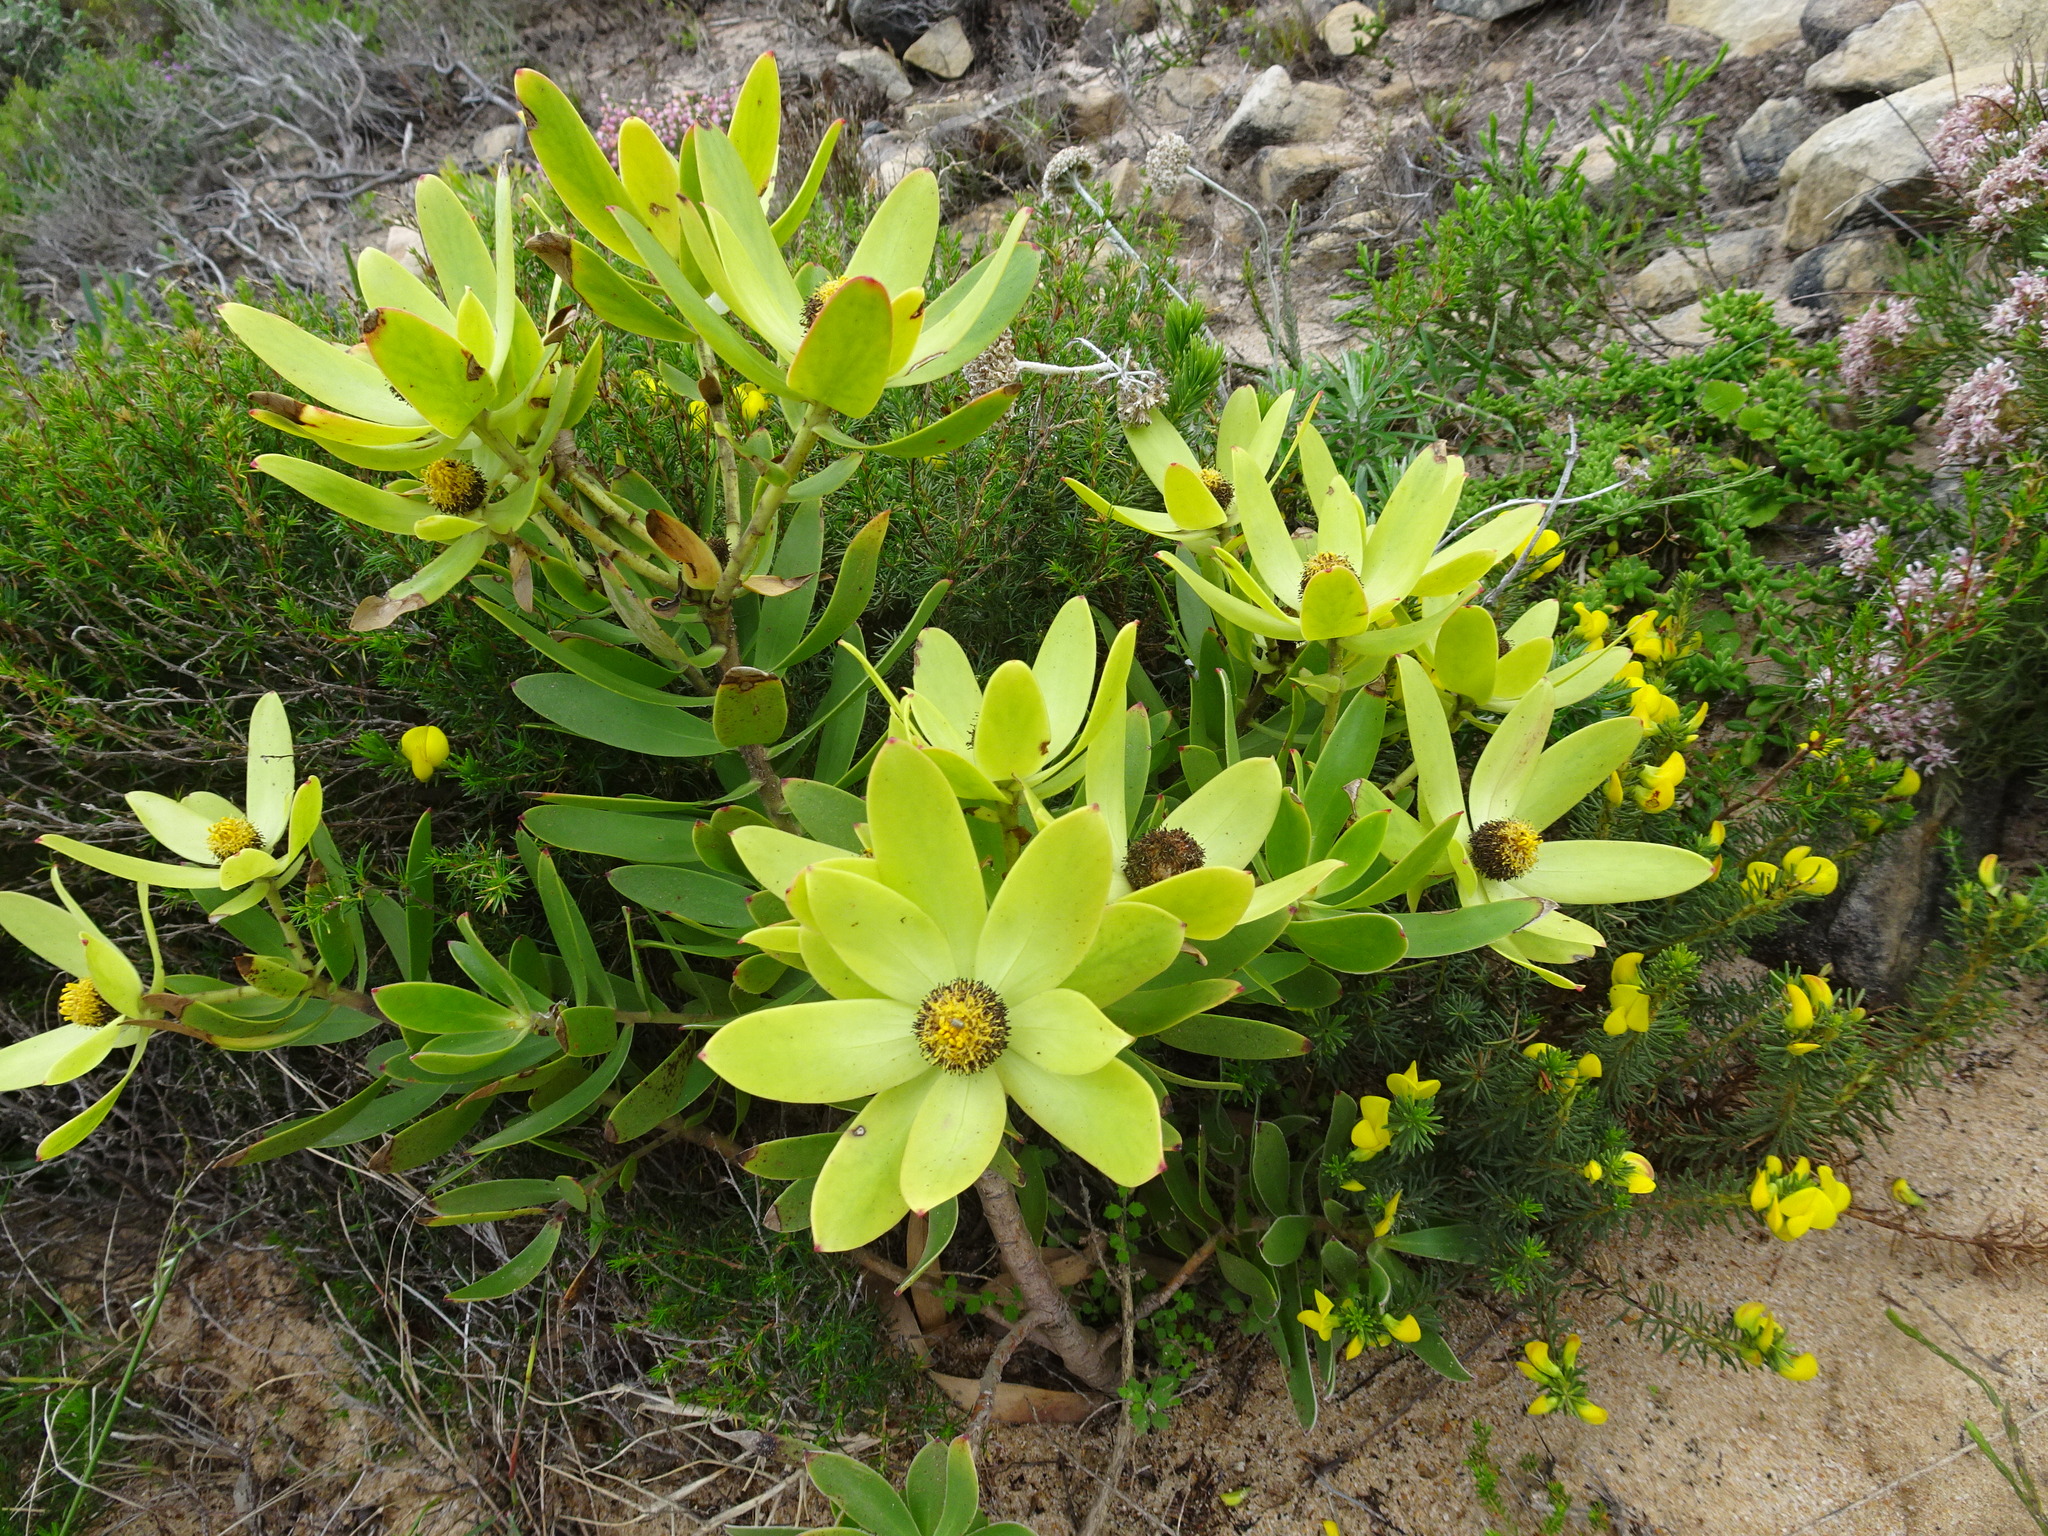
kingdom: Plantae
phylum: Tracheophyta
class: Magnoliopsida
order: Proteales
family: Proteaceae
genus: Leucadendron
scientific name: Leucadendron gandogeri
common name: Broad-leaf conebush
